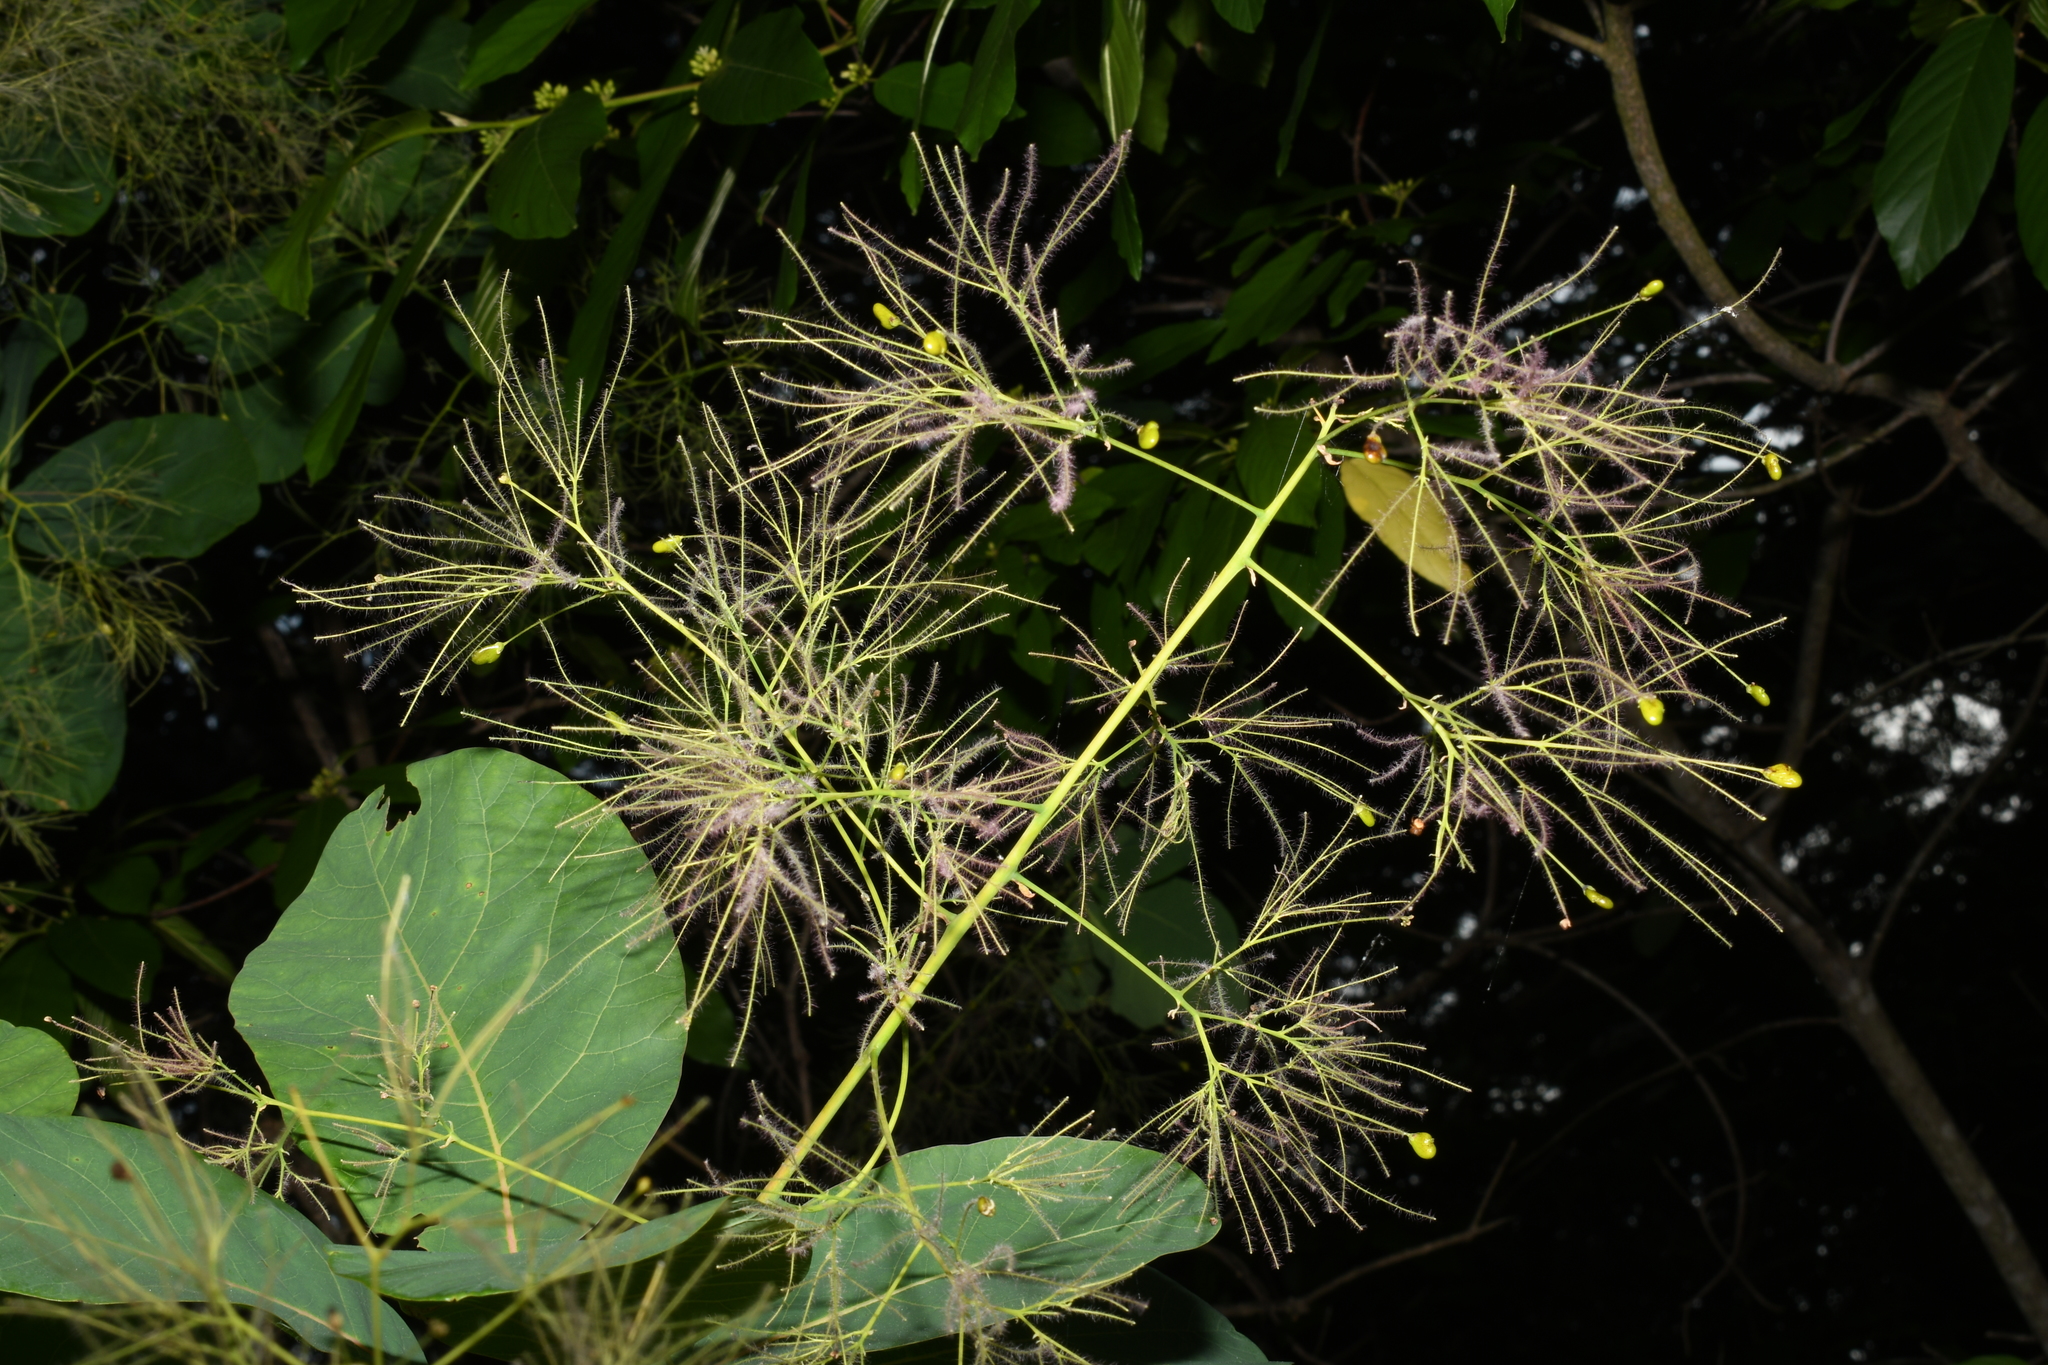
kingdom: Plantae
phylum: Tracheophyta
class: Magnoliopsida
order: Sapindales
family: Anacardiaceae
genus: Cotinus
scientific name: Cotinus obovatus
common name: Chittamwood
